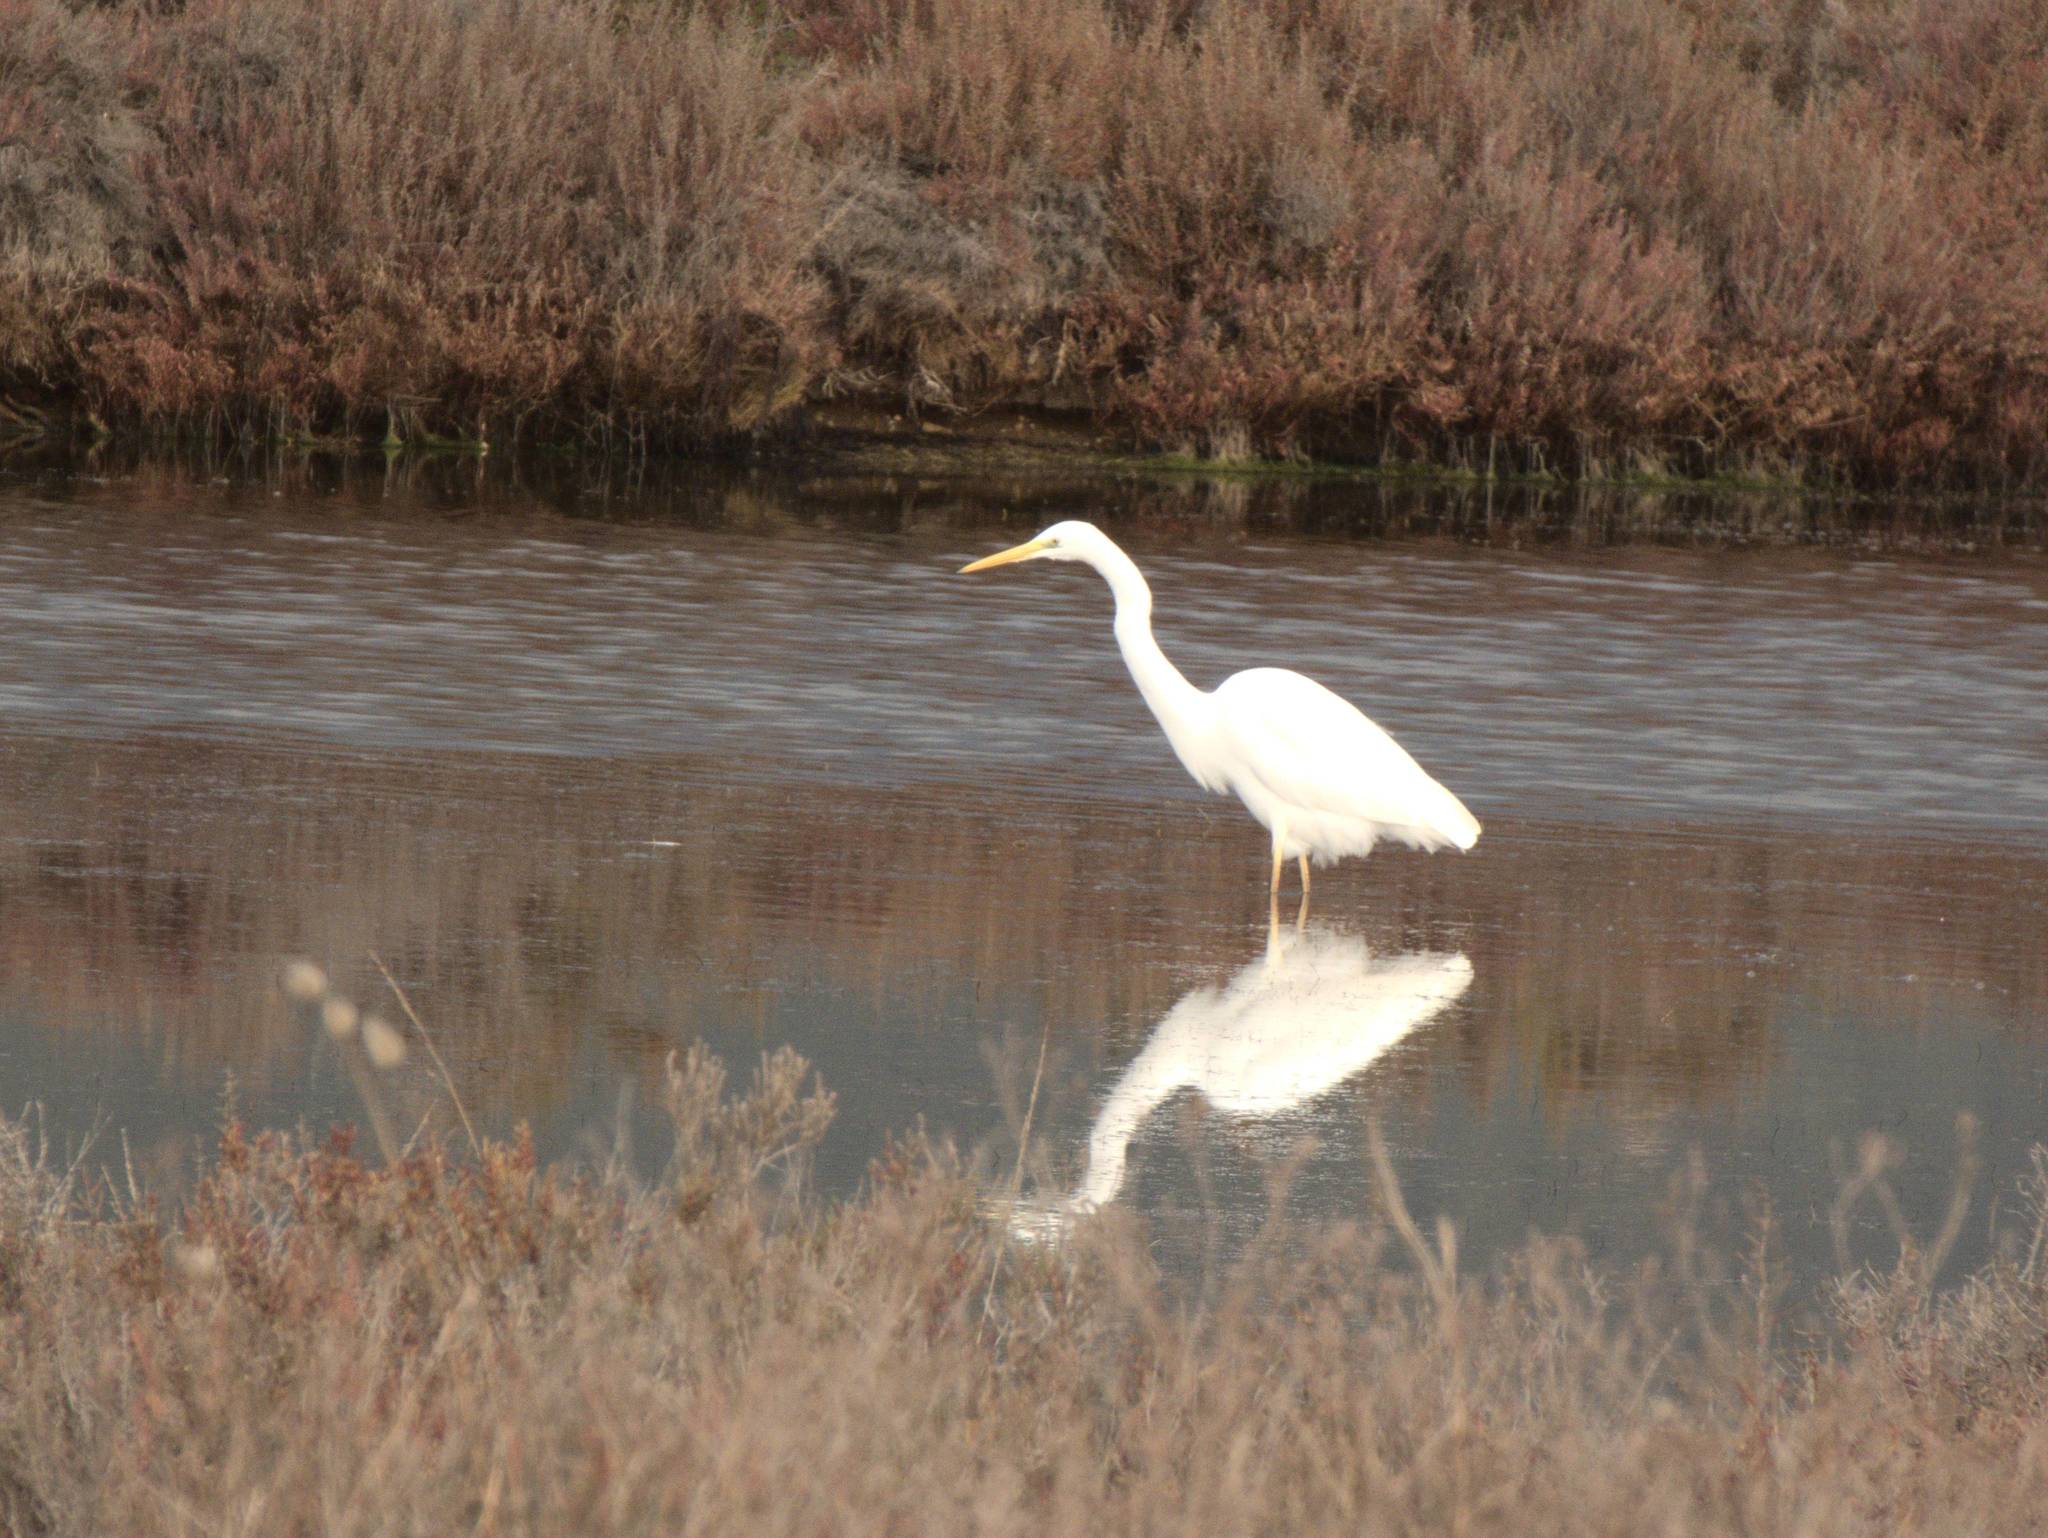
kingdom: Animalia
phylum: Chordata
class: Aves
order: Pelecaniformes
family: Ardeidae
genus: Ardea
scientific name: Ardea alba
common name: Great egret
